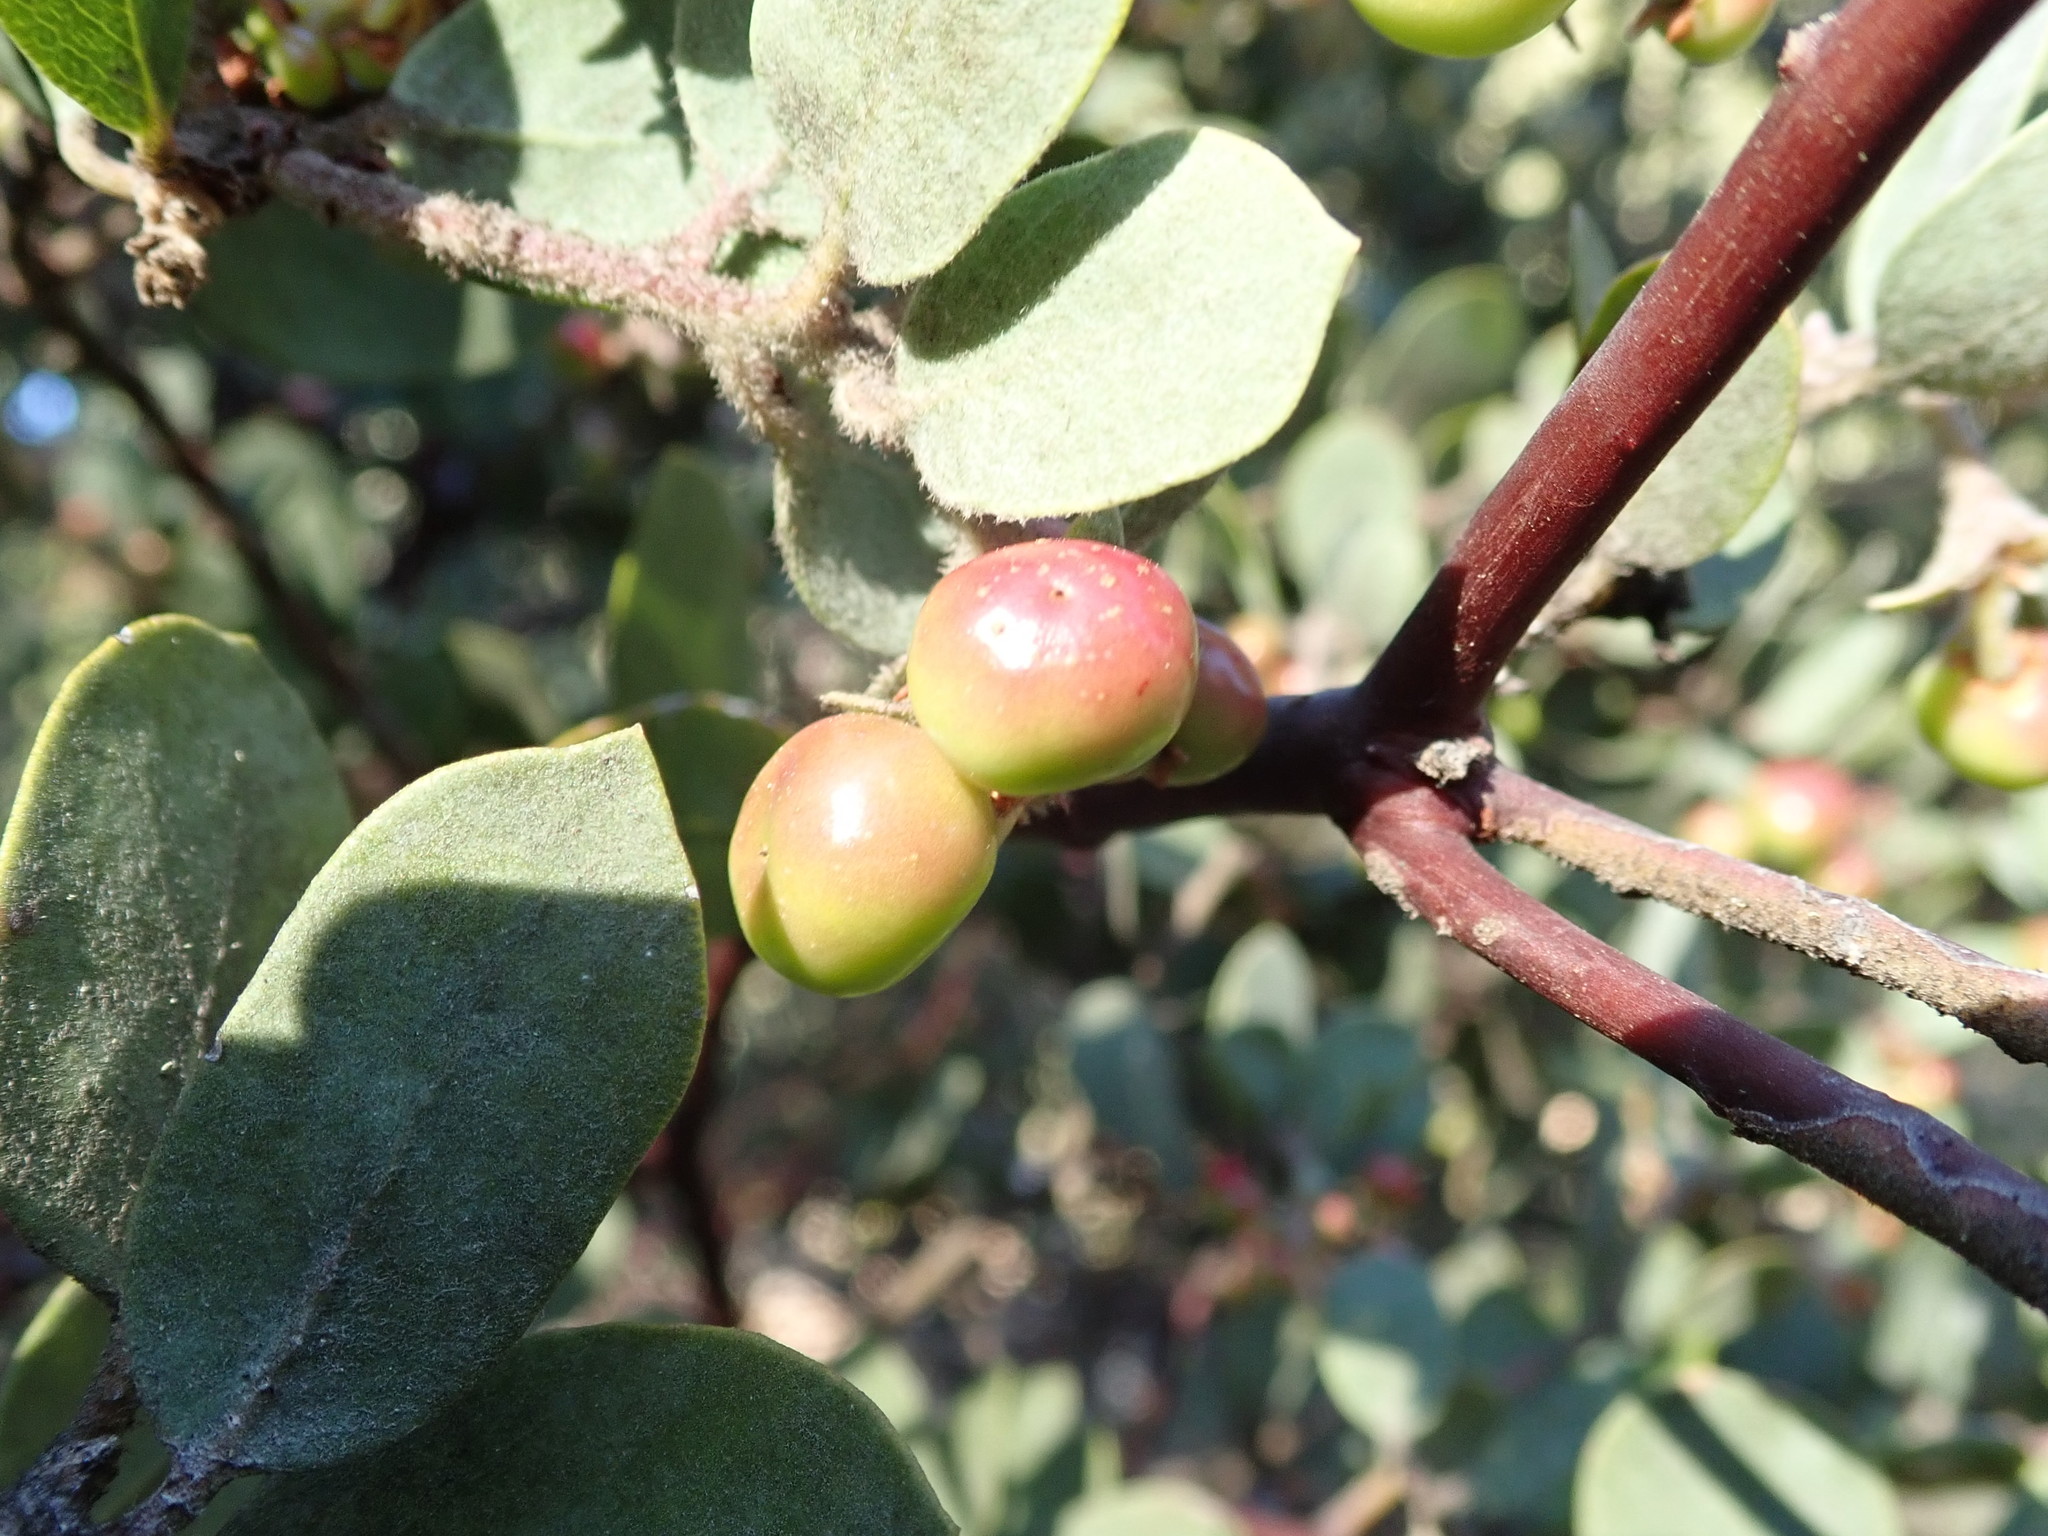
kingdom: Plantae
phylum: Tracheophyta
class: Magnoliopsida
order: Ericales
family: Ericaceae
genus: Arctostaphylos
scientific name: Arctostaphylos silvicola
